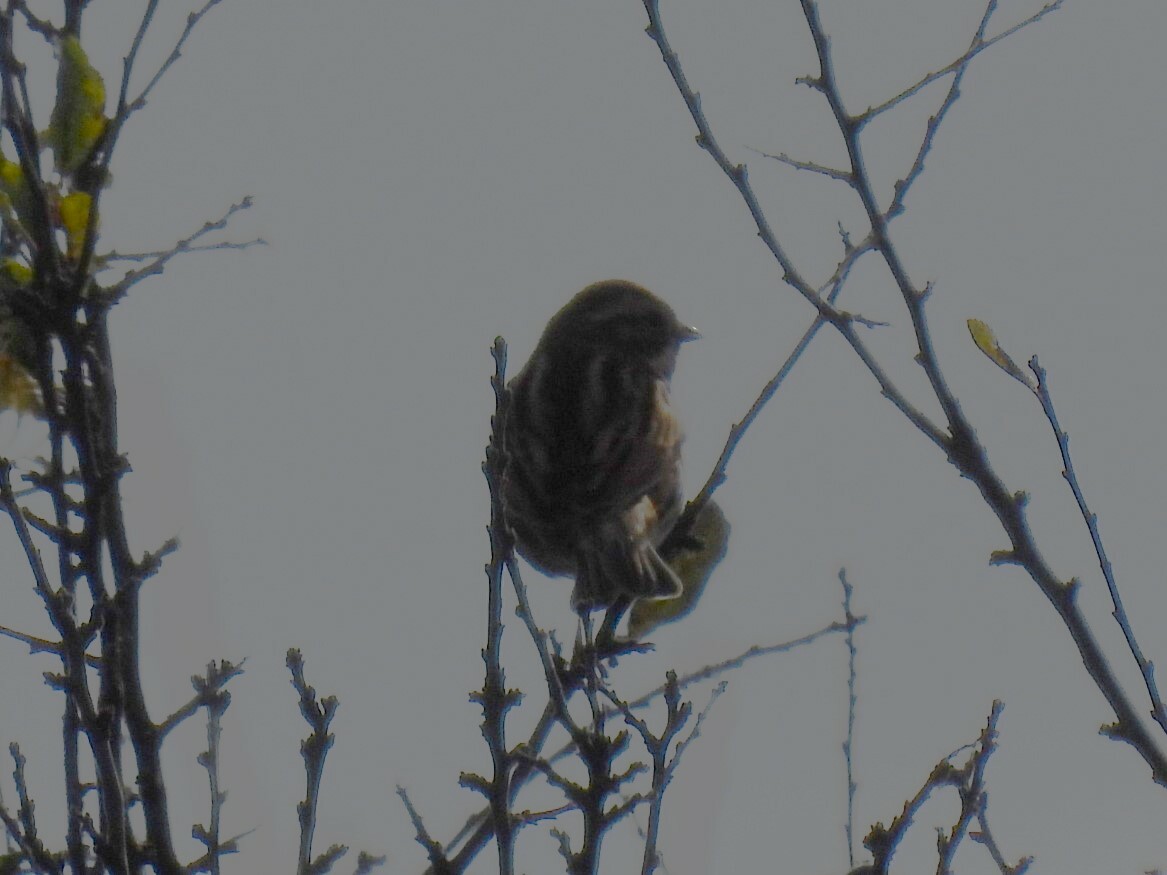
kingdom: Animalia
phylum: Chordata
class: Aves
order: Passeriformes
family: Emberizidae
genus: Emberiza
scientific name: Emberiza schoeniclus
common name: Reed bunting
